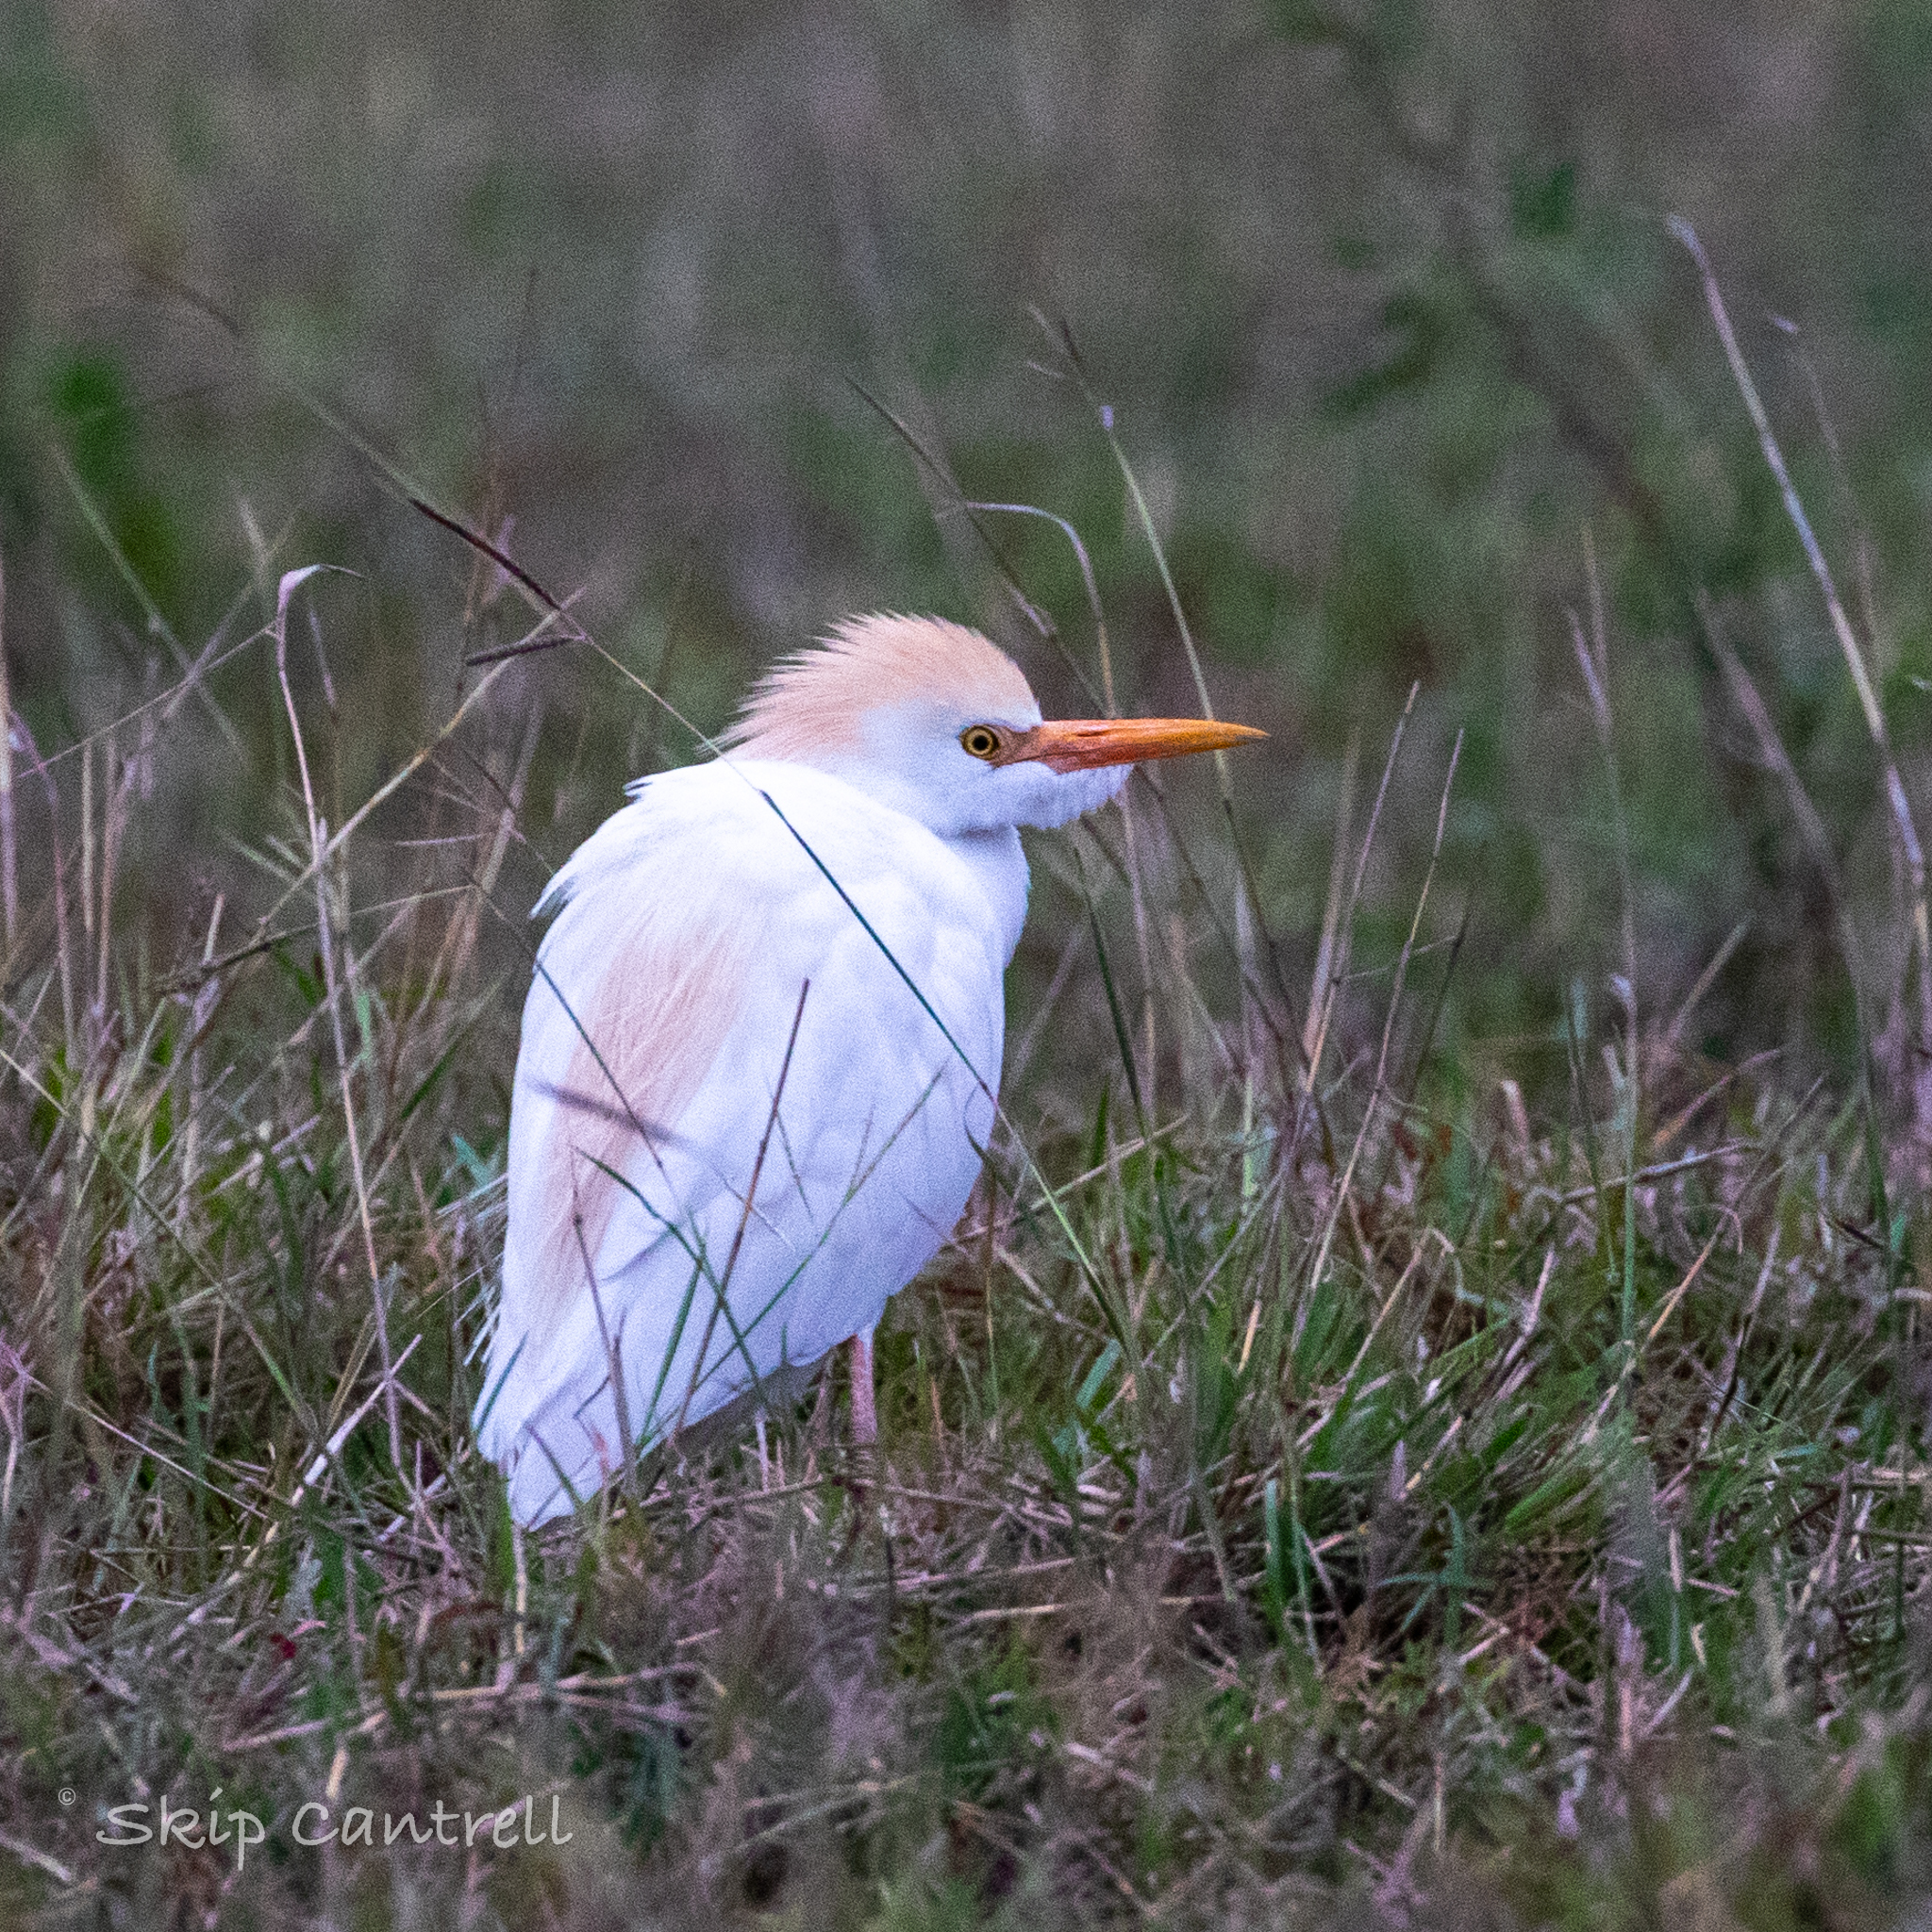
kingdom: Animalia
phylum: Chordata
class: Aves
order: Pelecaniformes
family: Ardeidae
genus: Bubulcus
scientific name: Bubulcus ibis
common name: Cattle egret
